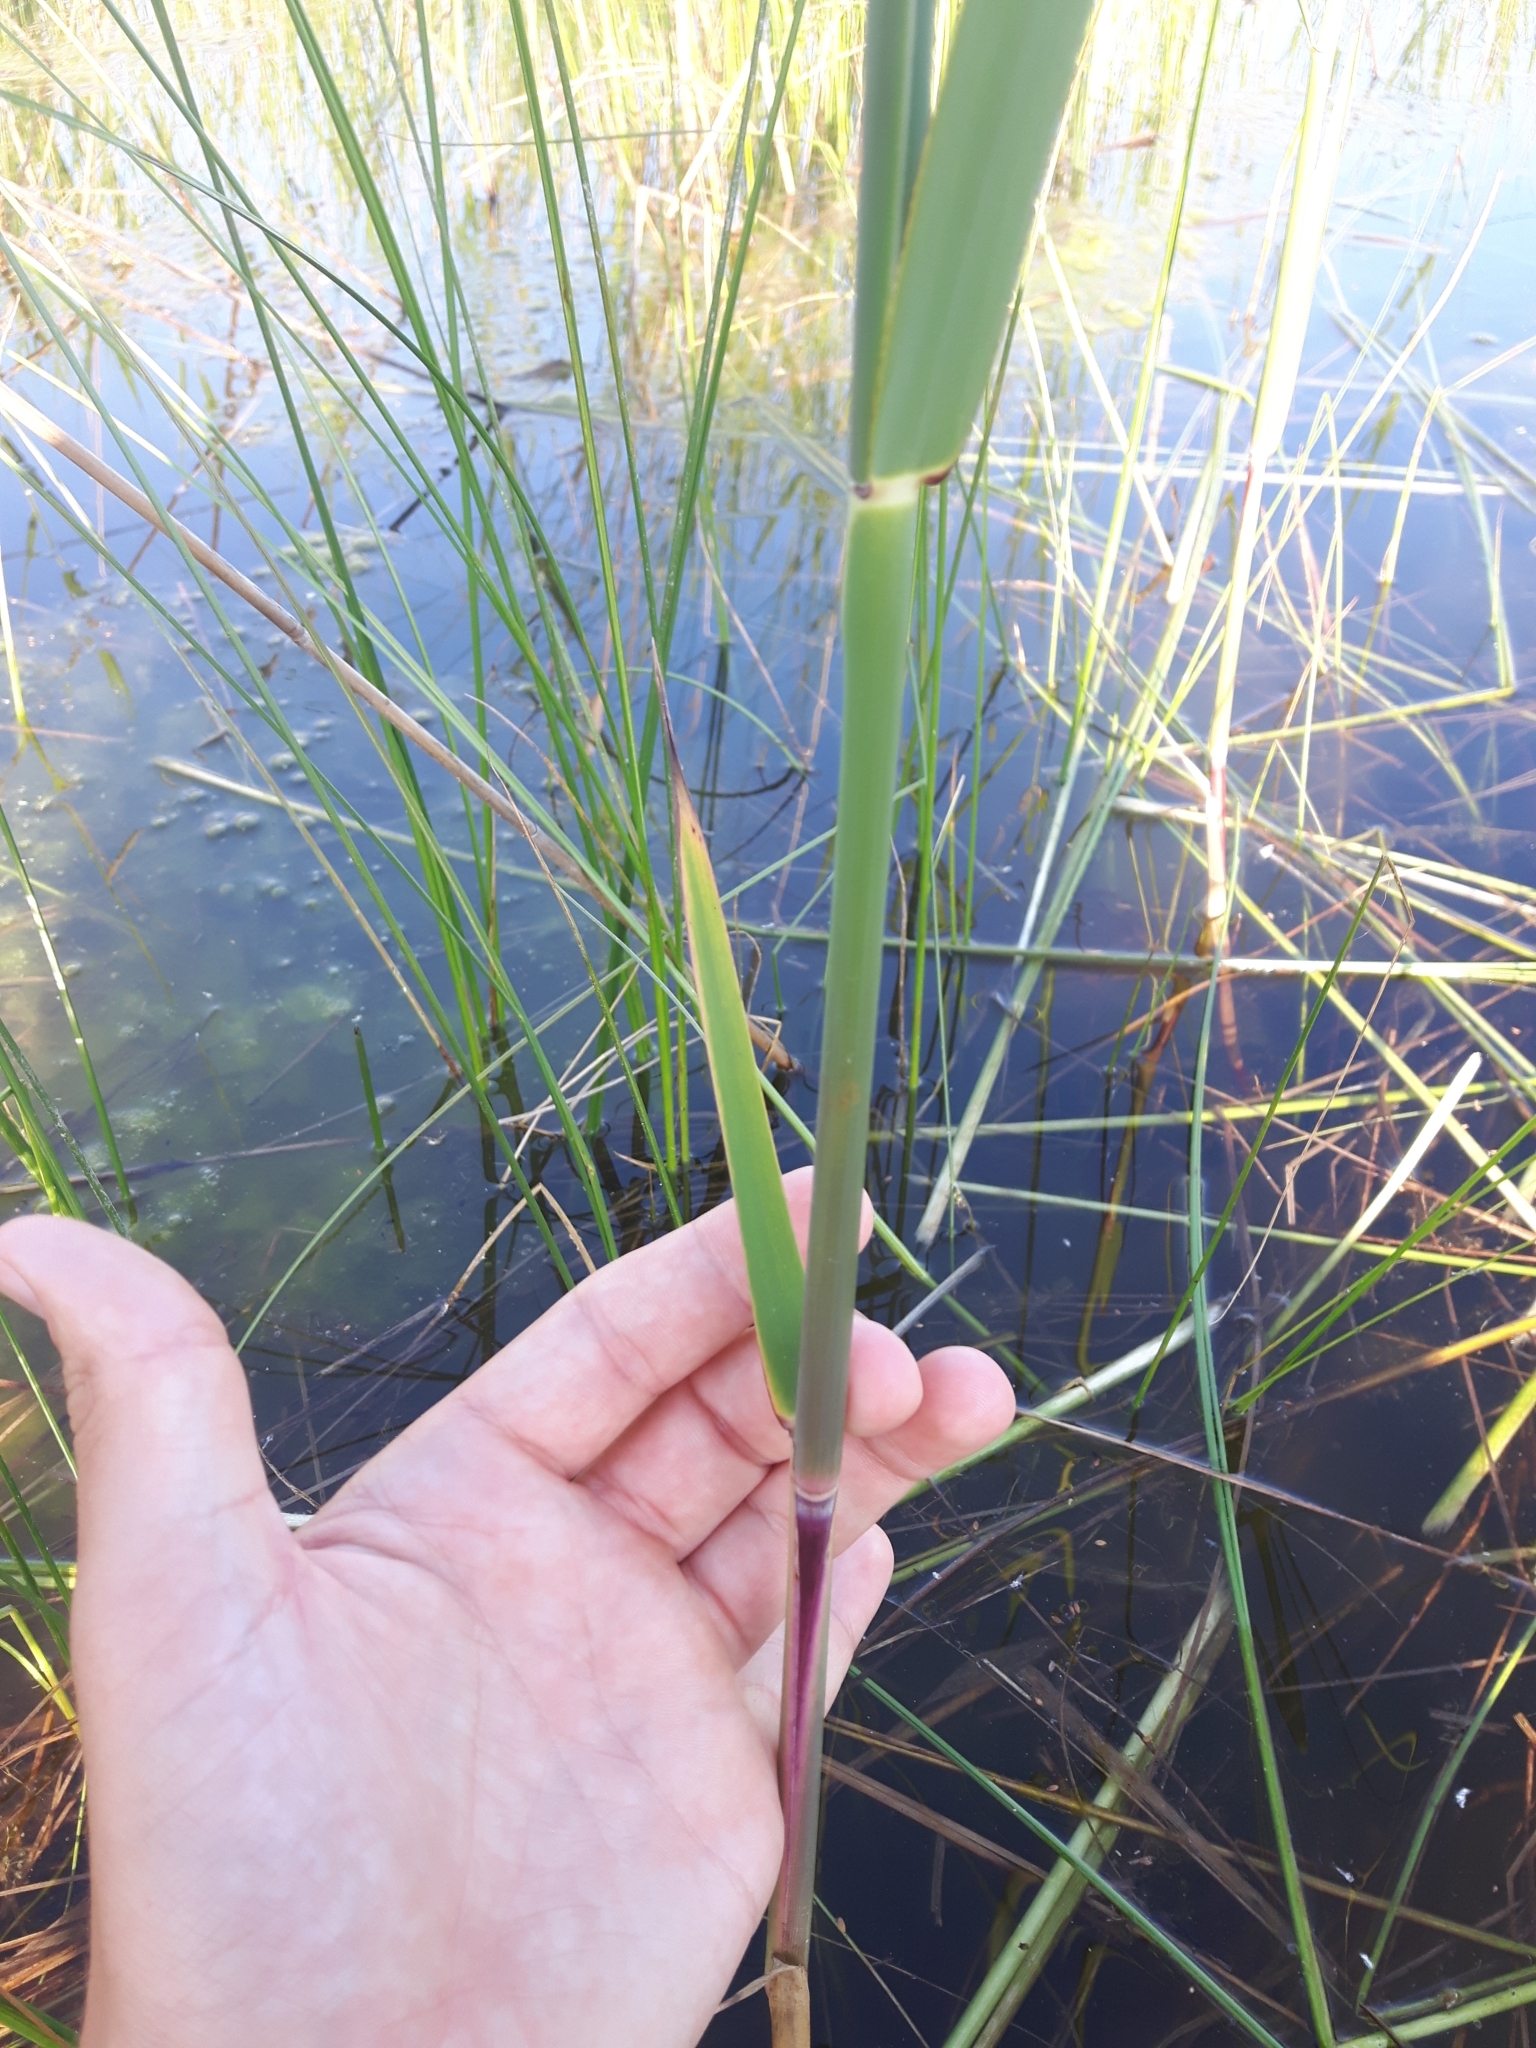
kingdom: Plantae
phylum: Tracheophyta
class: Liliopsida
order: Poales
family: Poaceae
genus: Phragmites
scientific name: Phragmites australis
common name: Common reed
